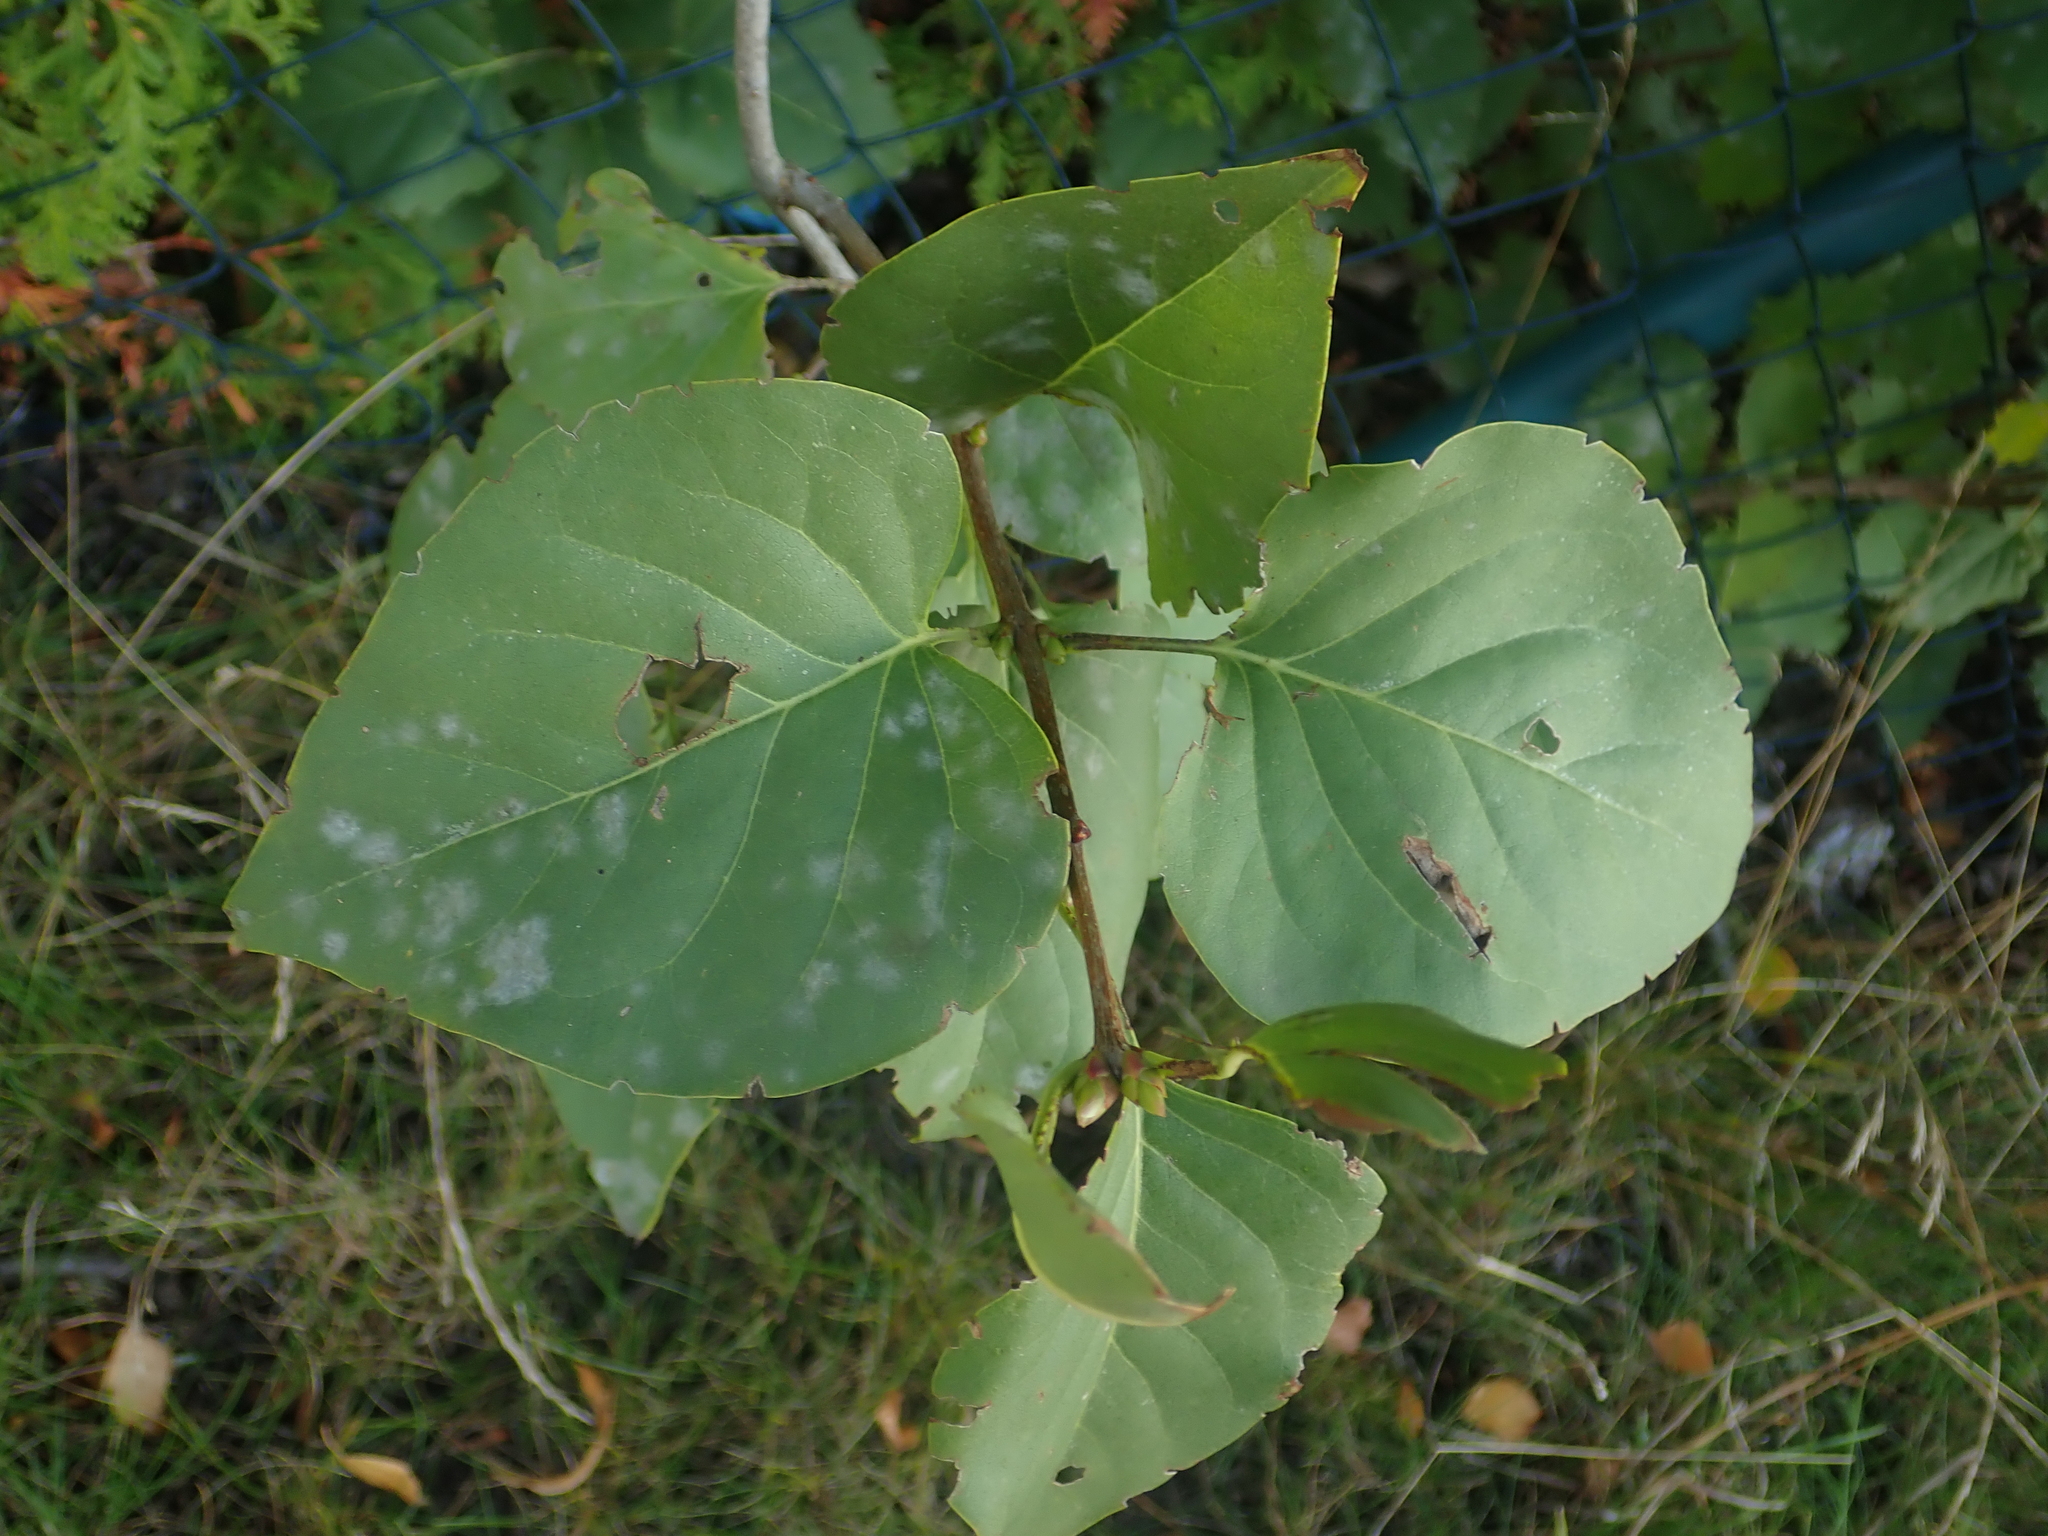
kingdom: Plantae
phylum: Tracheophyta
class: Magnoliopsida
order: Lamiales
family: Oleaceae
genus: Syringa
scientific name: Syringa vulgaris
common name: Common lilac
